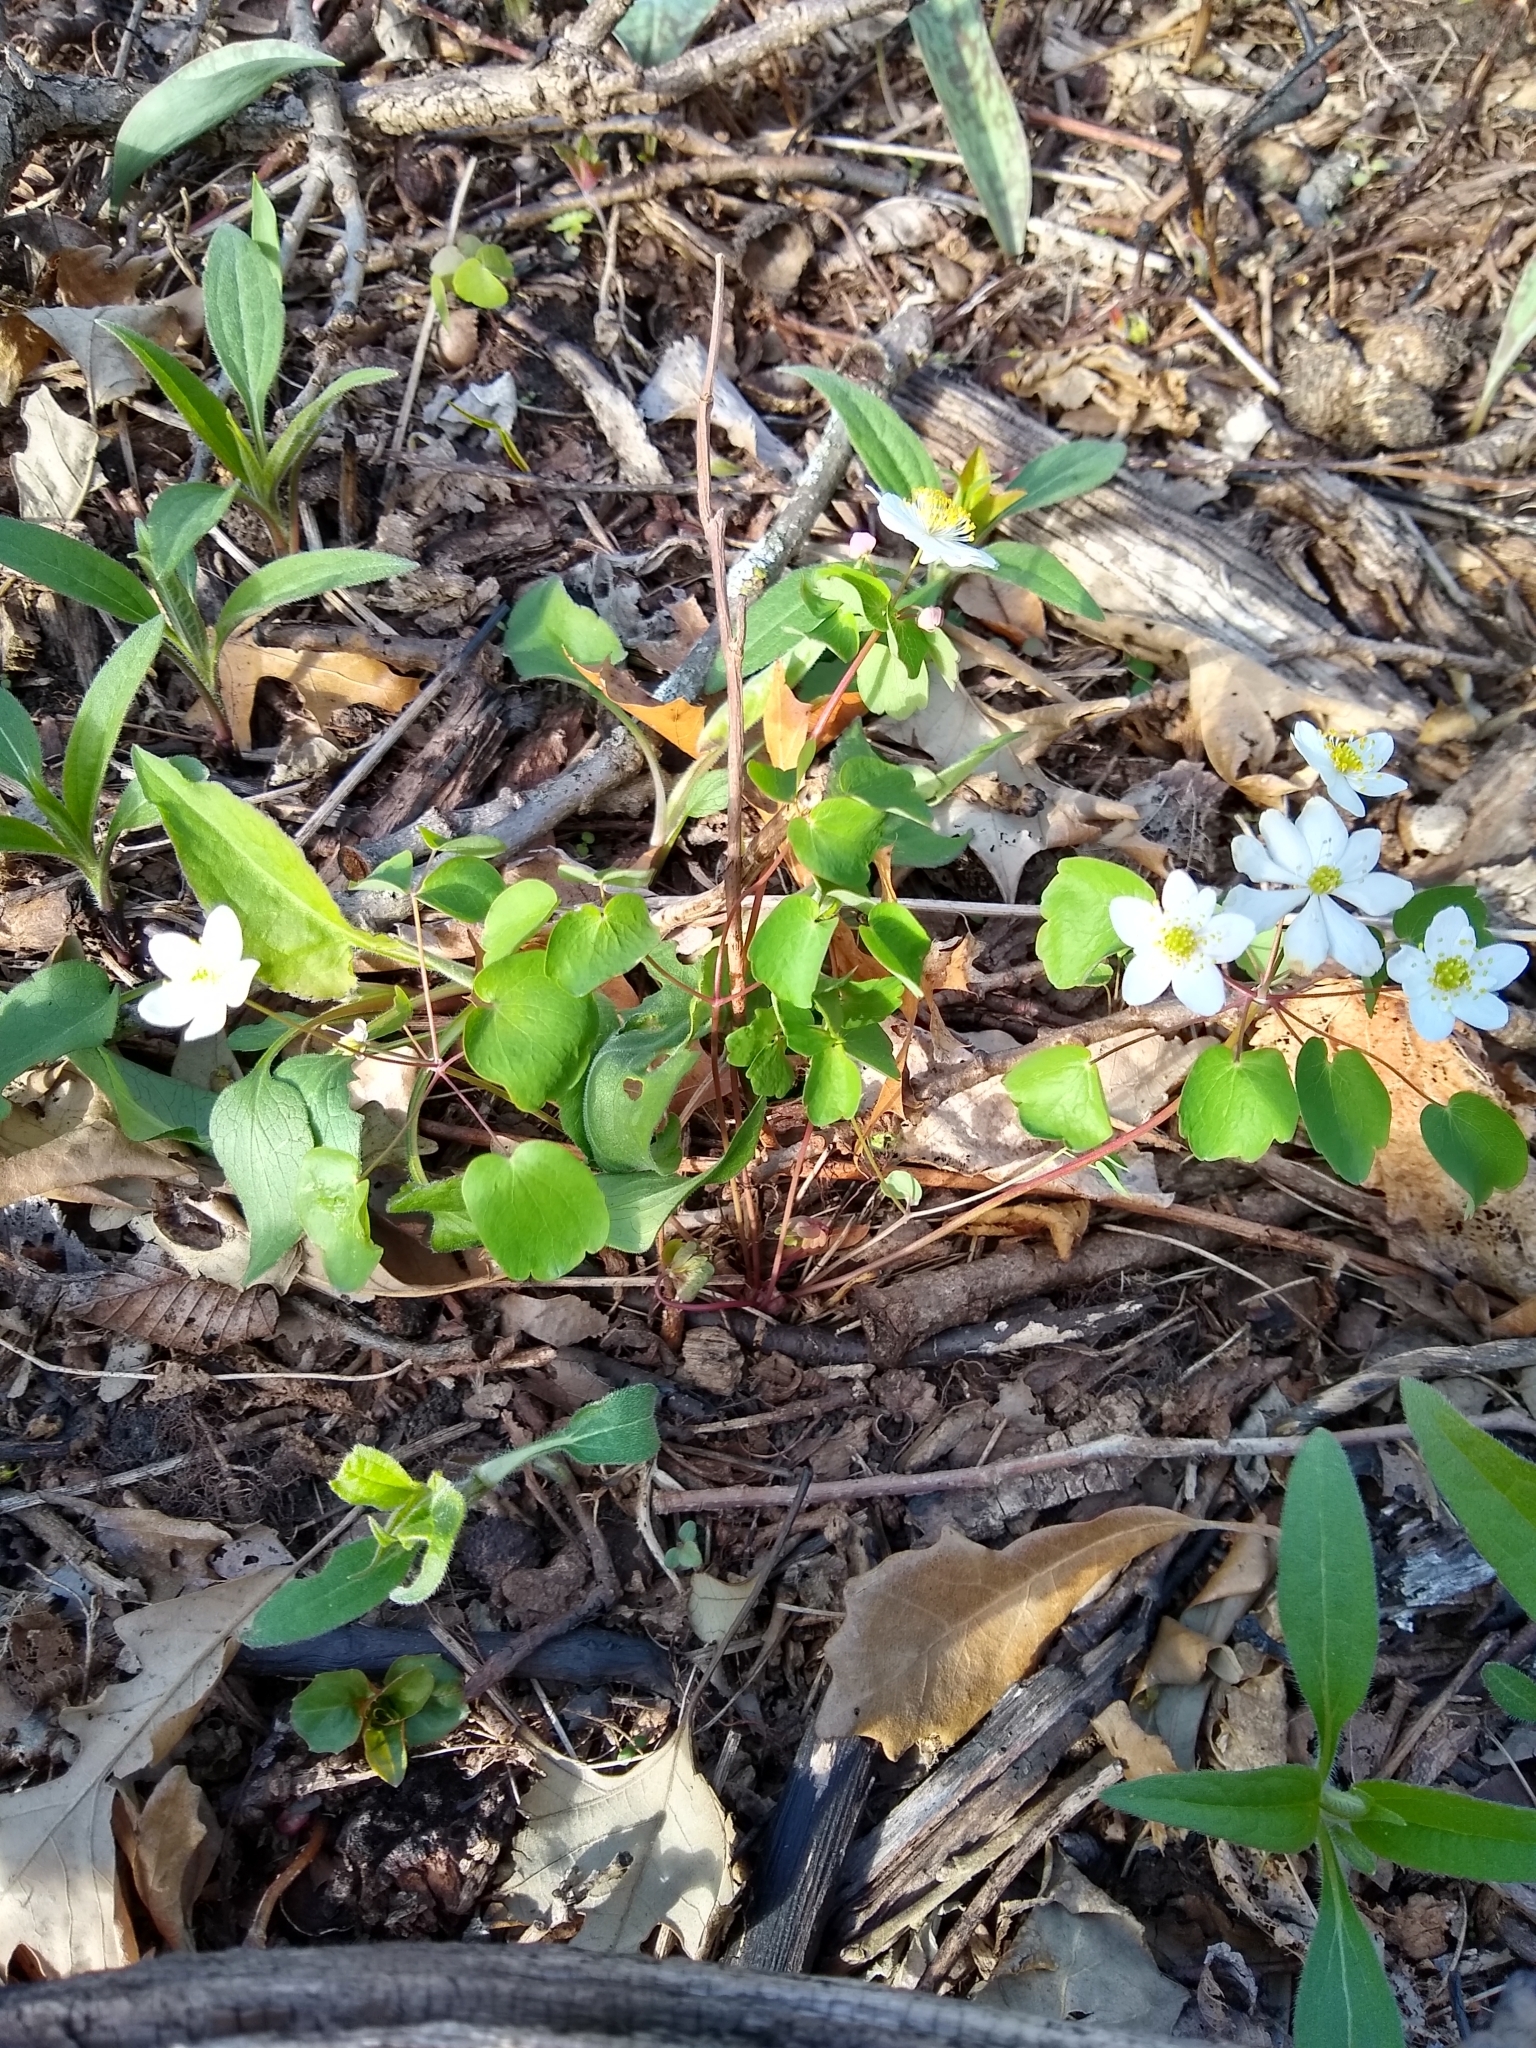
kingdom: Plantae
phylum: Tracheophyta
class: Magnoliopsida
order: Ranunculales
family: Ranunculaceae
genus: Thalictrum
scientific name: Thalictrum thalictroides
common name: Rue-anemone
